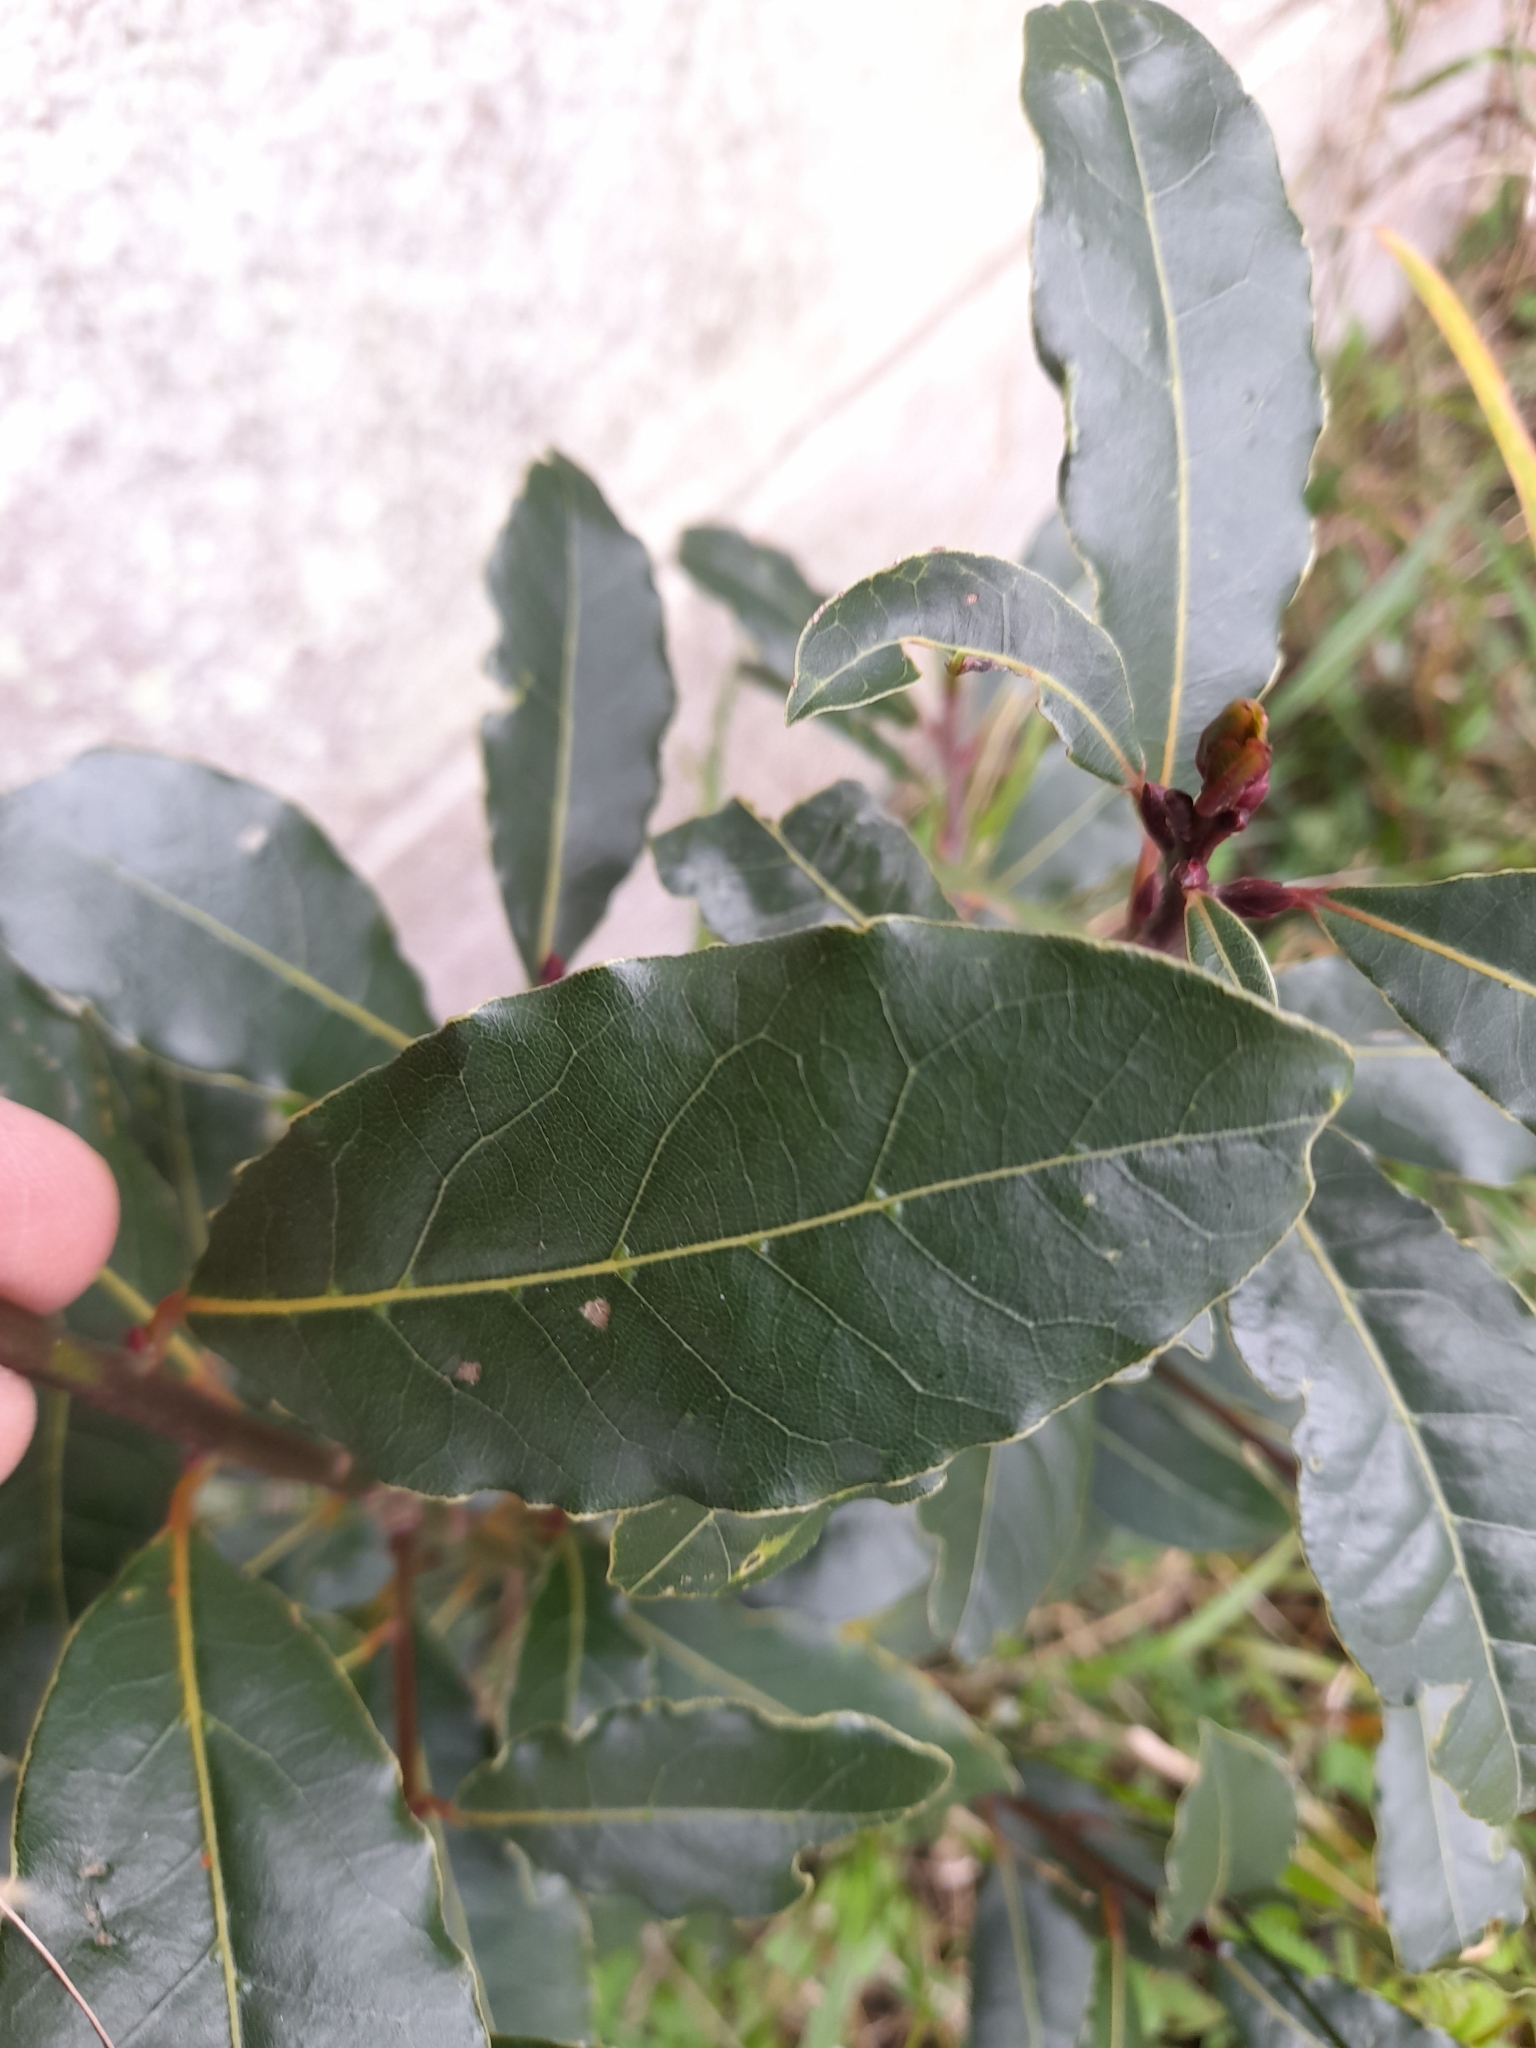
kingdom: Plantae
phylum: Tracheophyta
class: Magnoliopsida
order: Laurales
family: Lauraceae
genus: Laurus
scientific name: Laurus nobilis
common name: Bay
